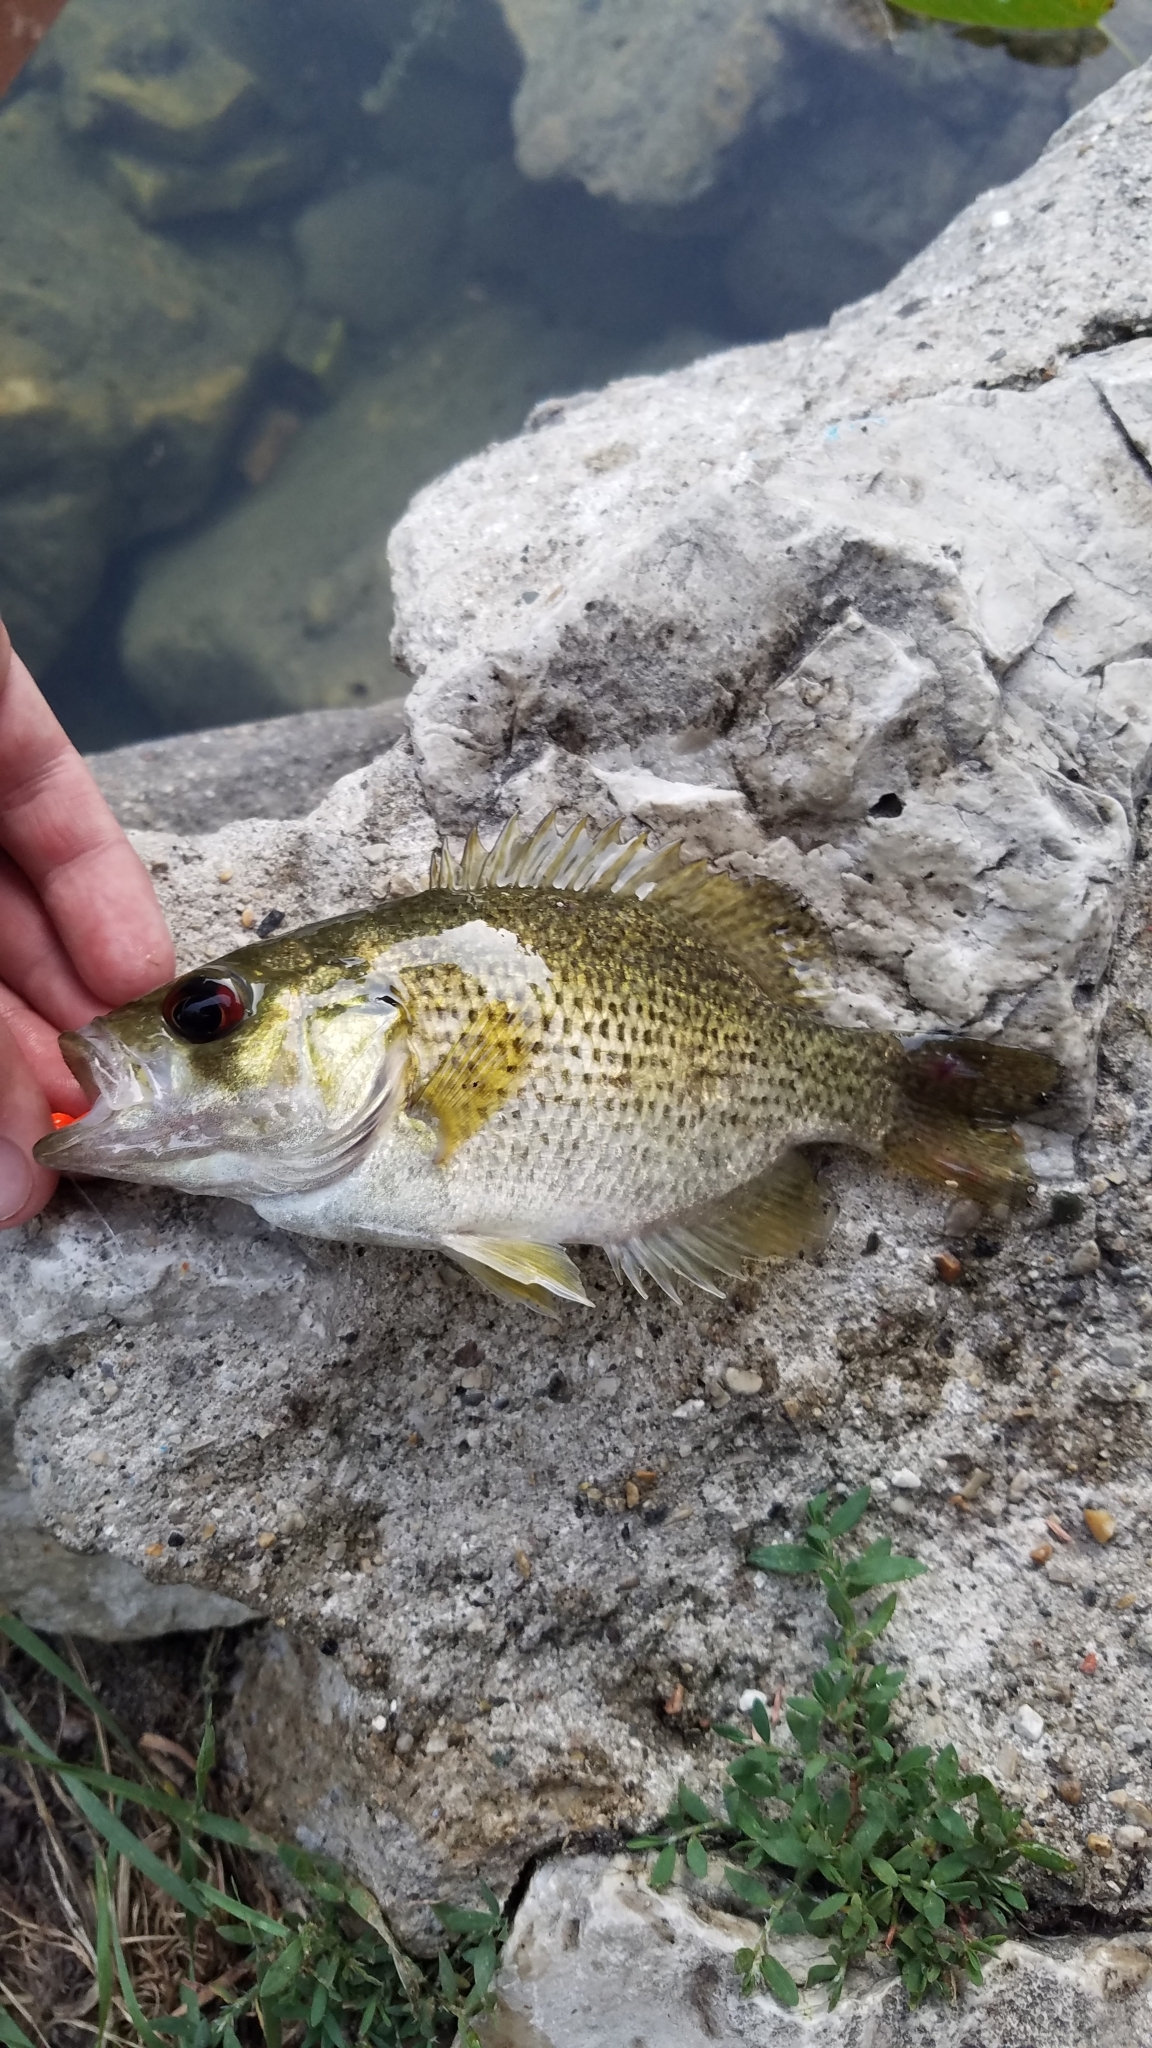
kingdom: Animalia
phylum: Chordata
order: Perciformes
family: Centrarchidae
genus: Ambloplites
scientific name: Ambloplites rupestris
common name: Rock bass
